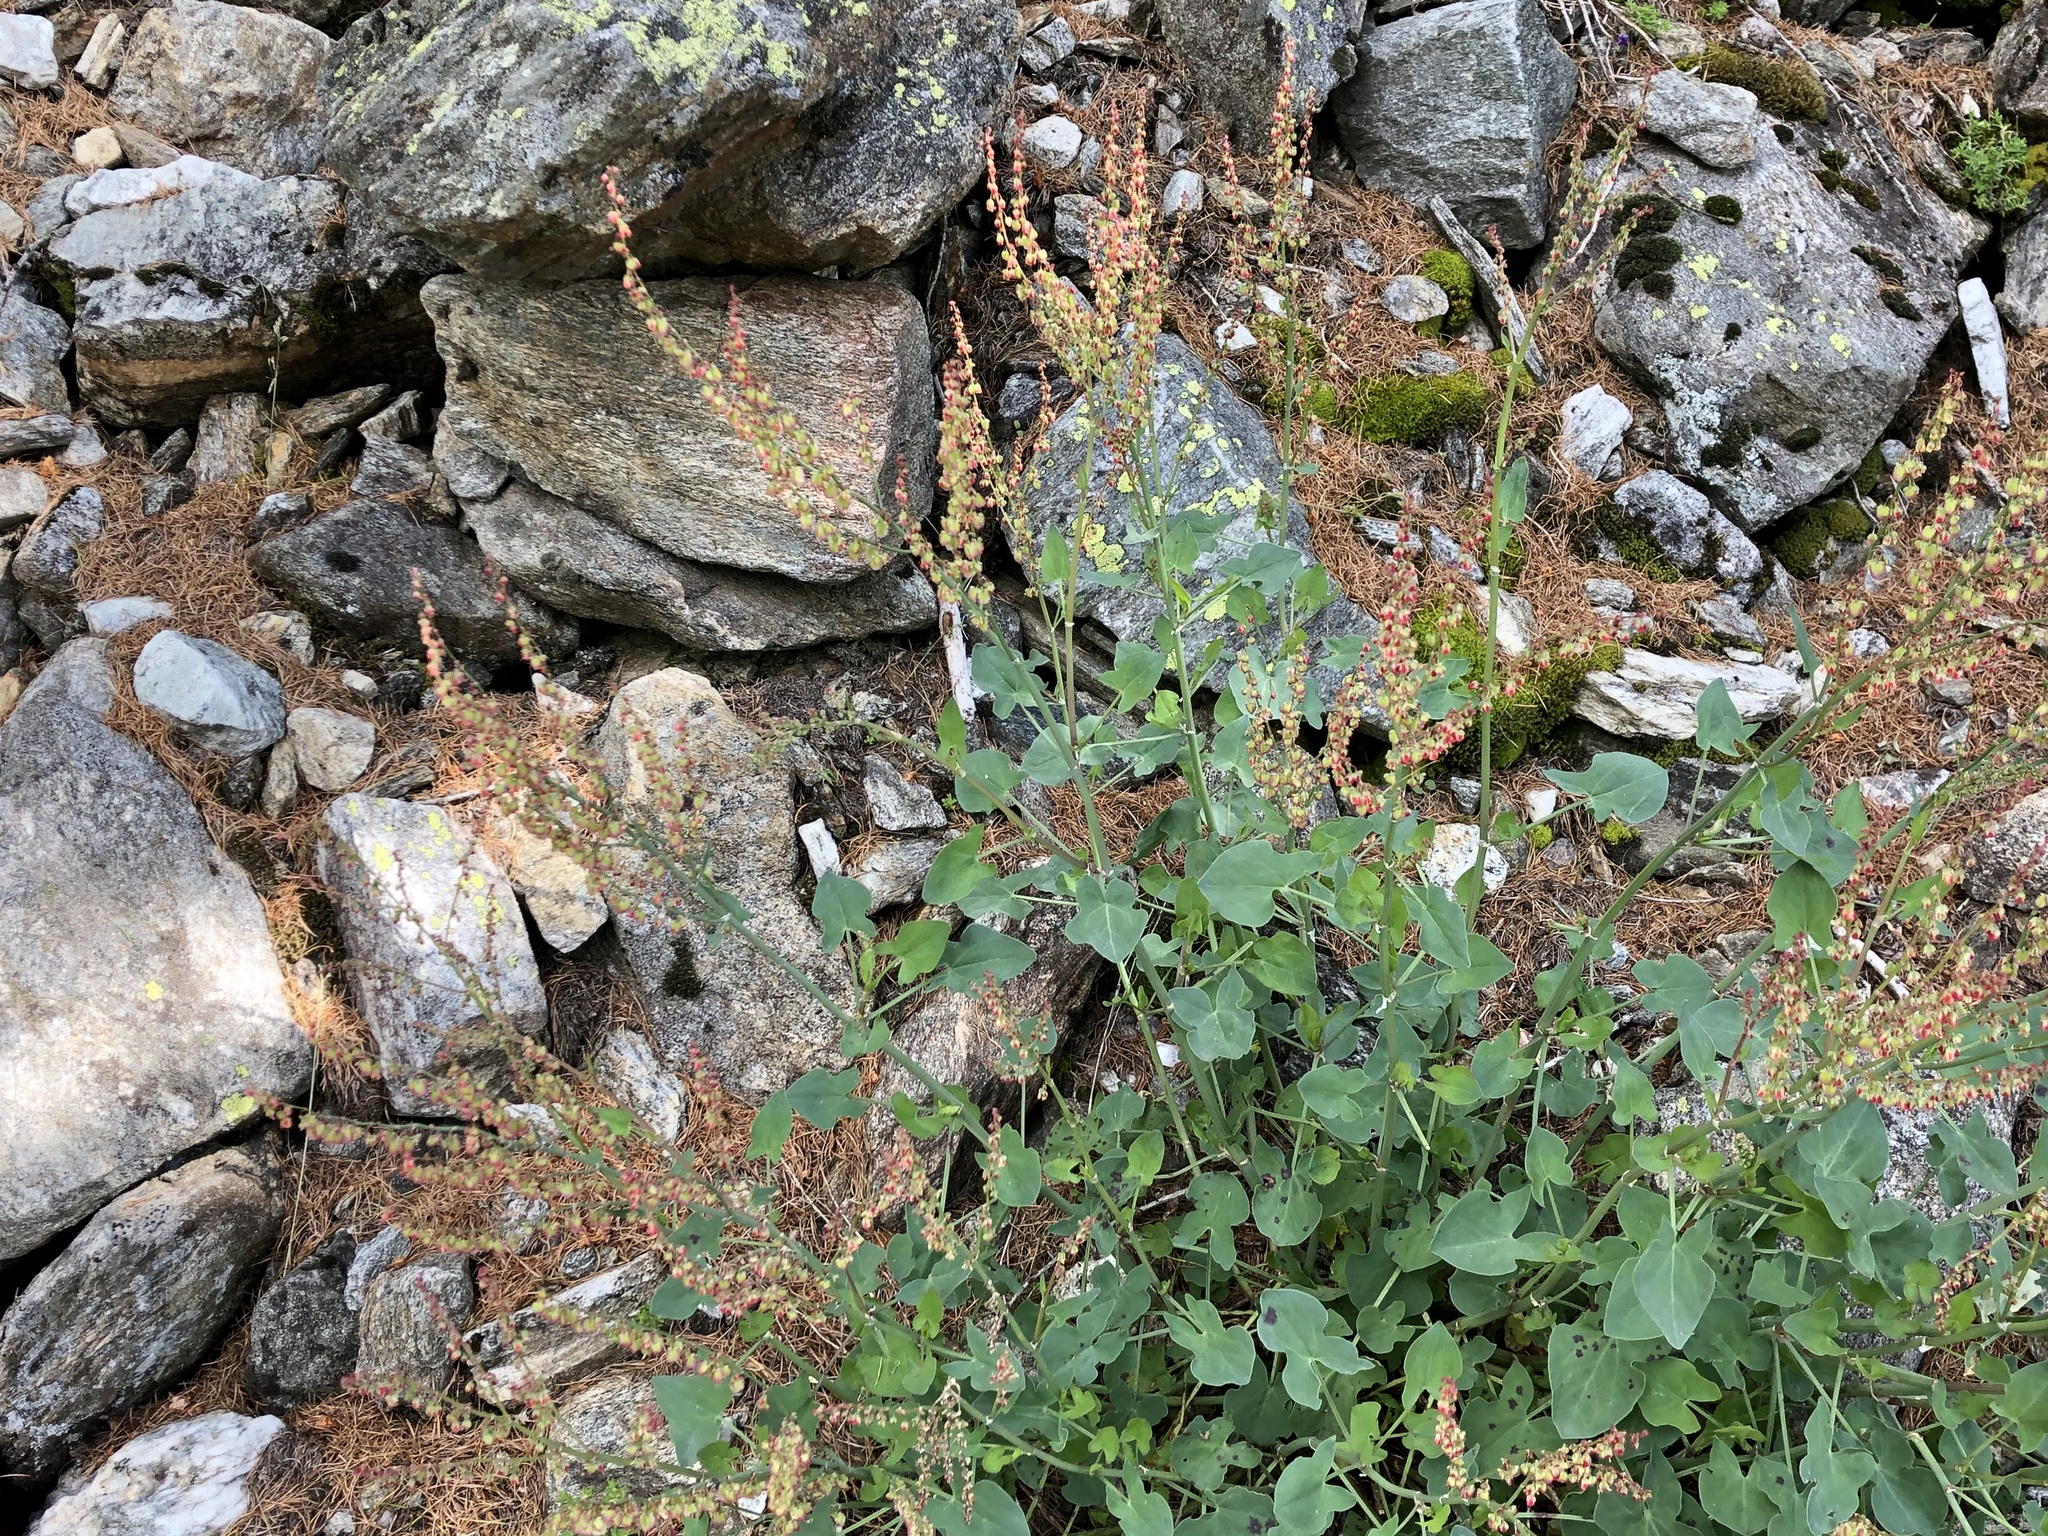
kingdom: Plantae
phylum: Tracheophyta
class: Magnoliopsida
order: Caryophyllales
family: Polygonaceae
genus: Rumex
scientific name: Rumex scutatus
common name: French sorrel
